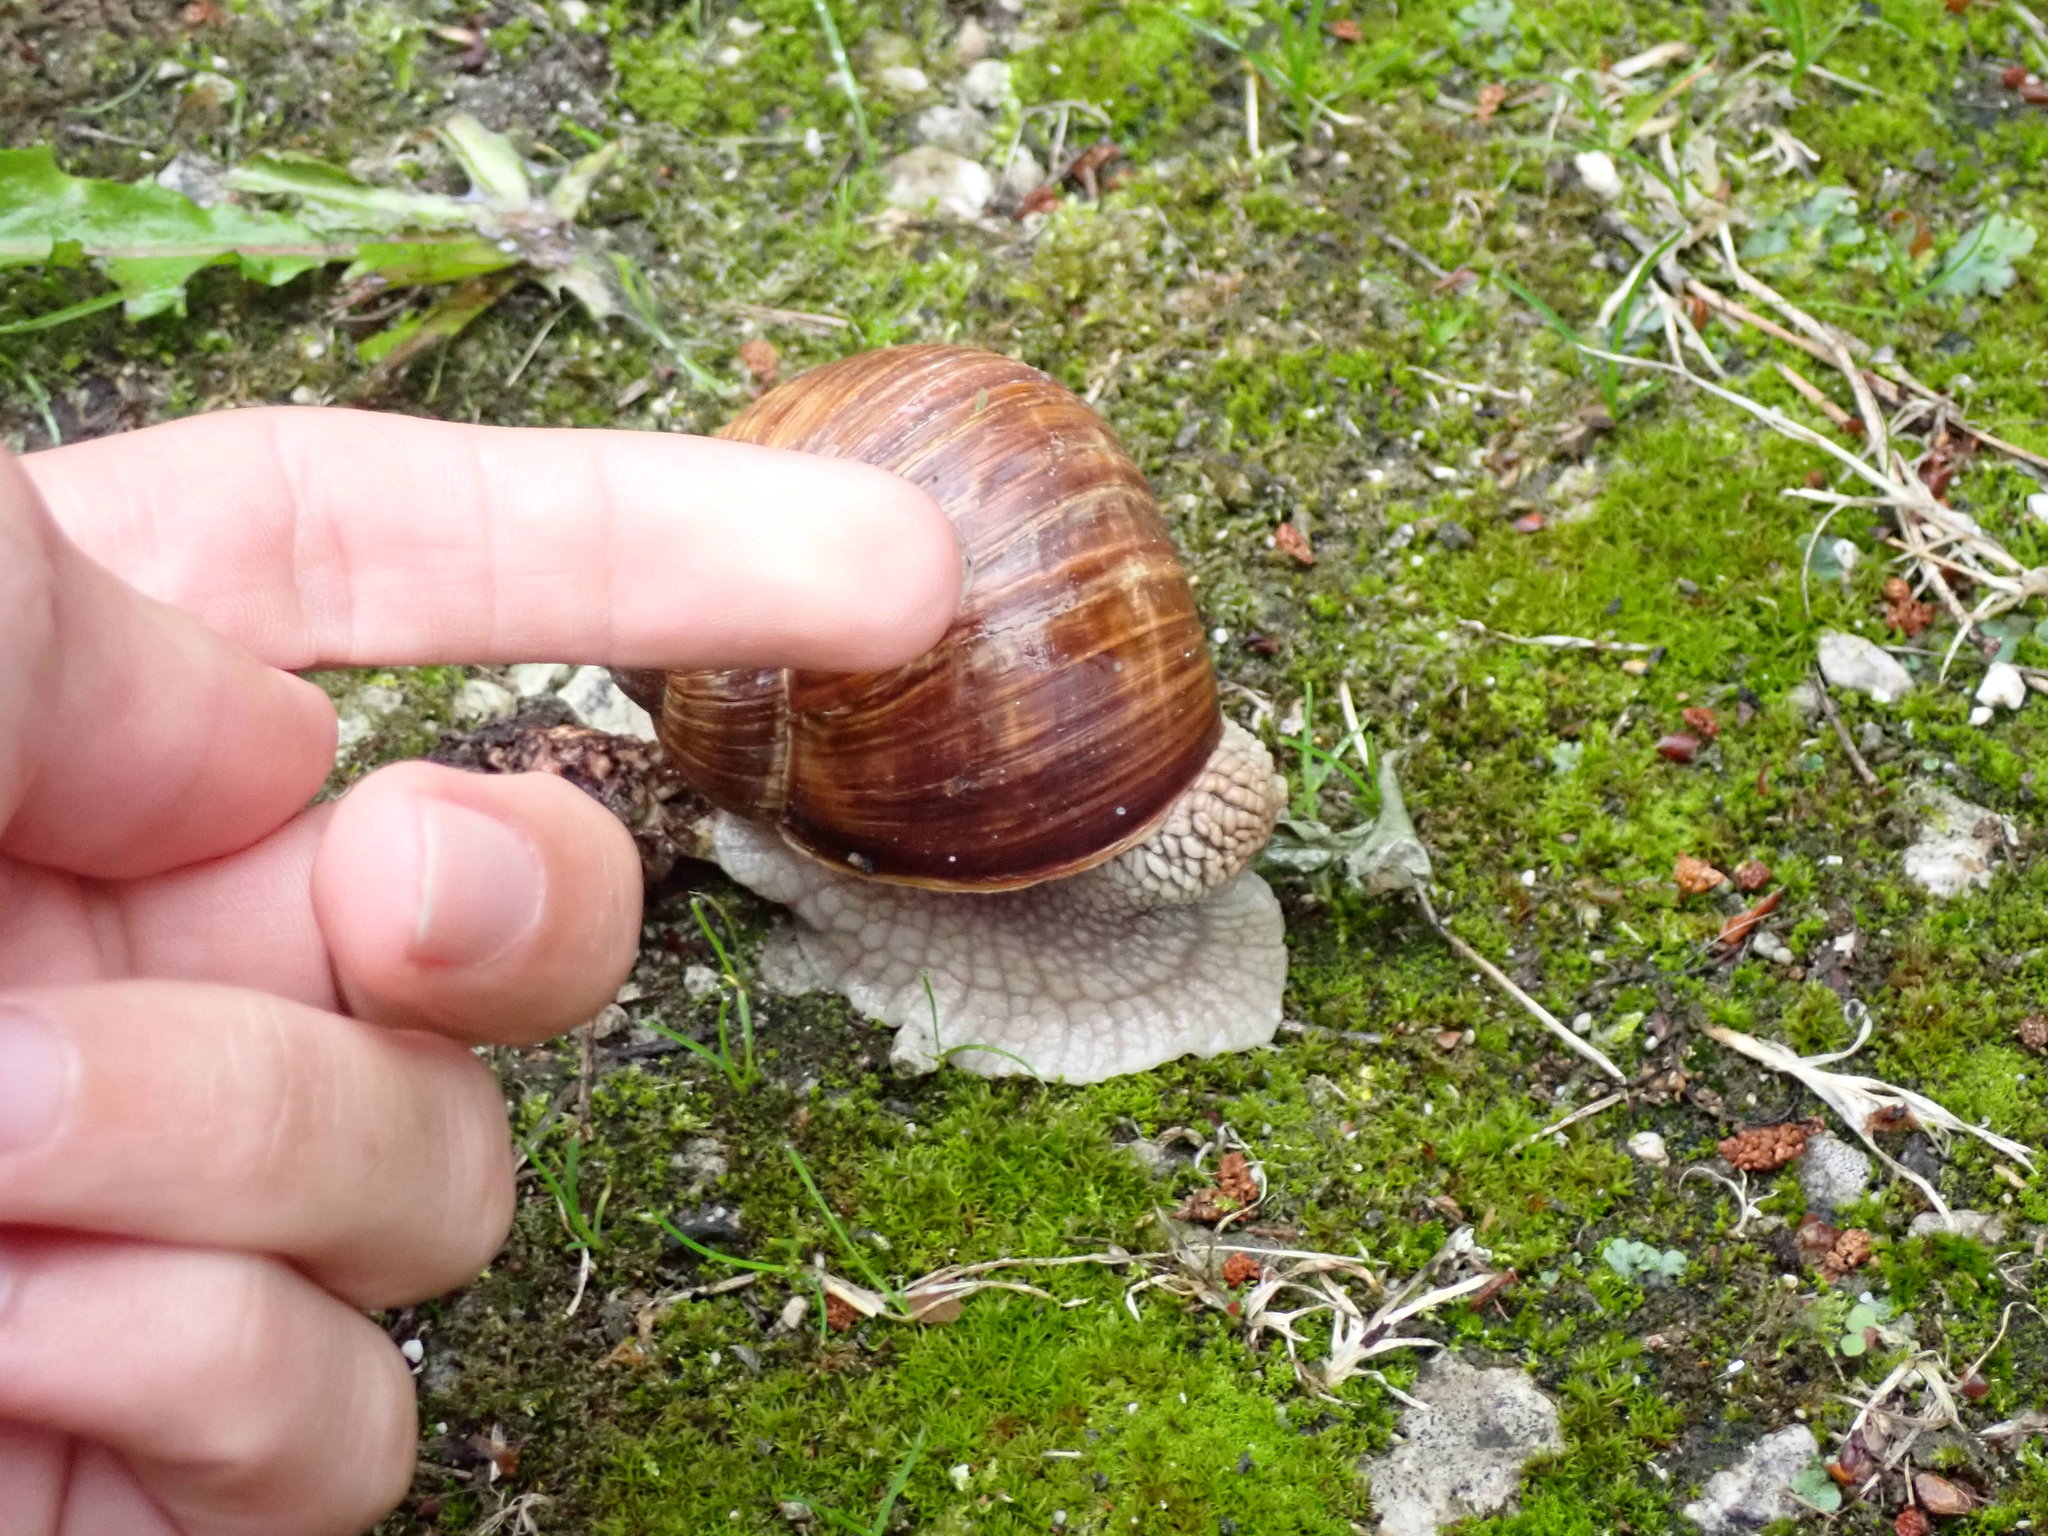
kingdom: Animalia
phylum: Mollusca
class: Gastropoda
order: Stylommatophora
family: Helicidae
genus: Helix
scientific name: Helix pomatia
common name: Roman snail
